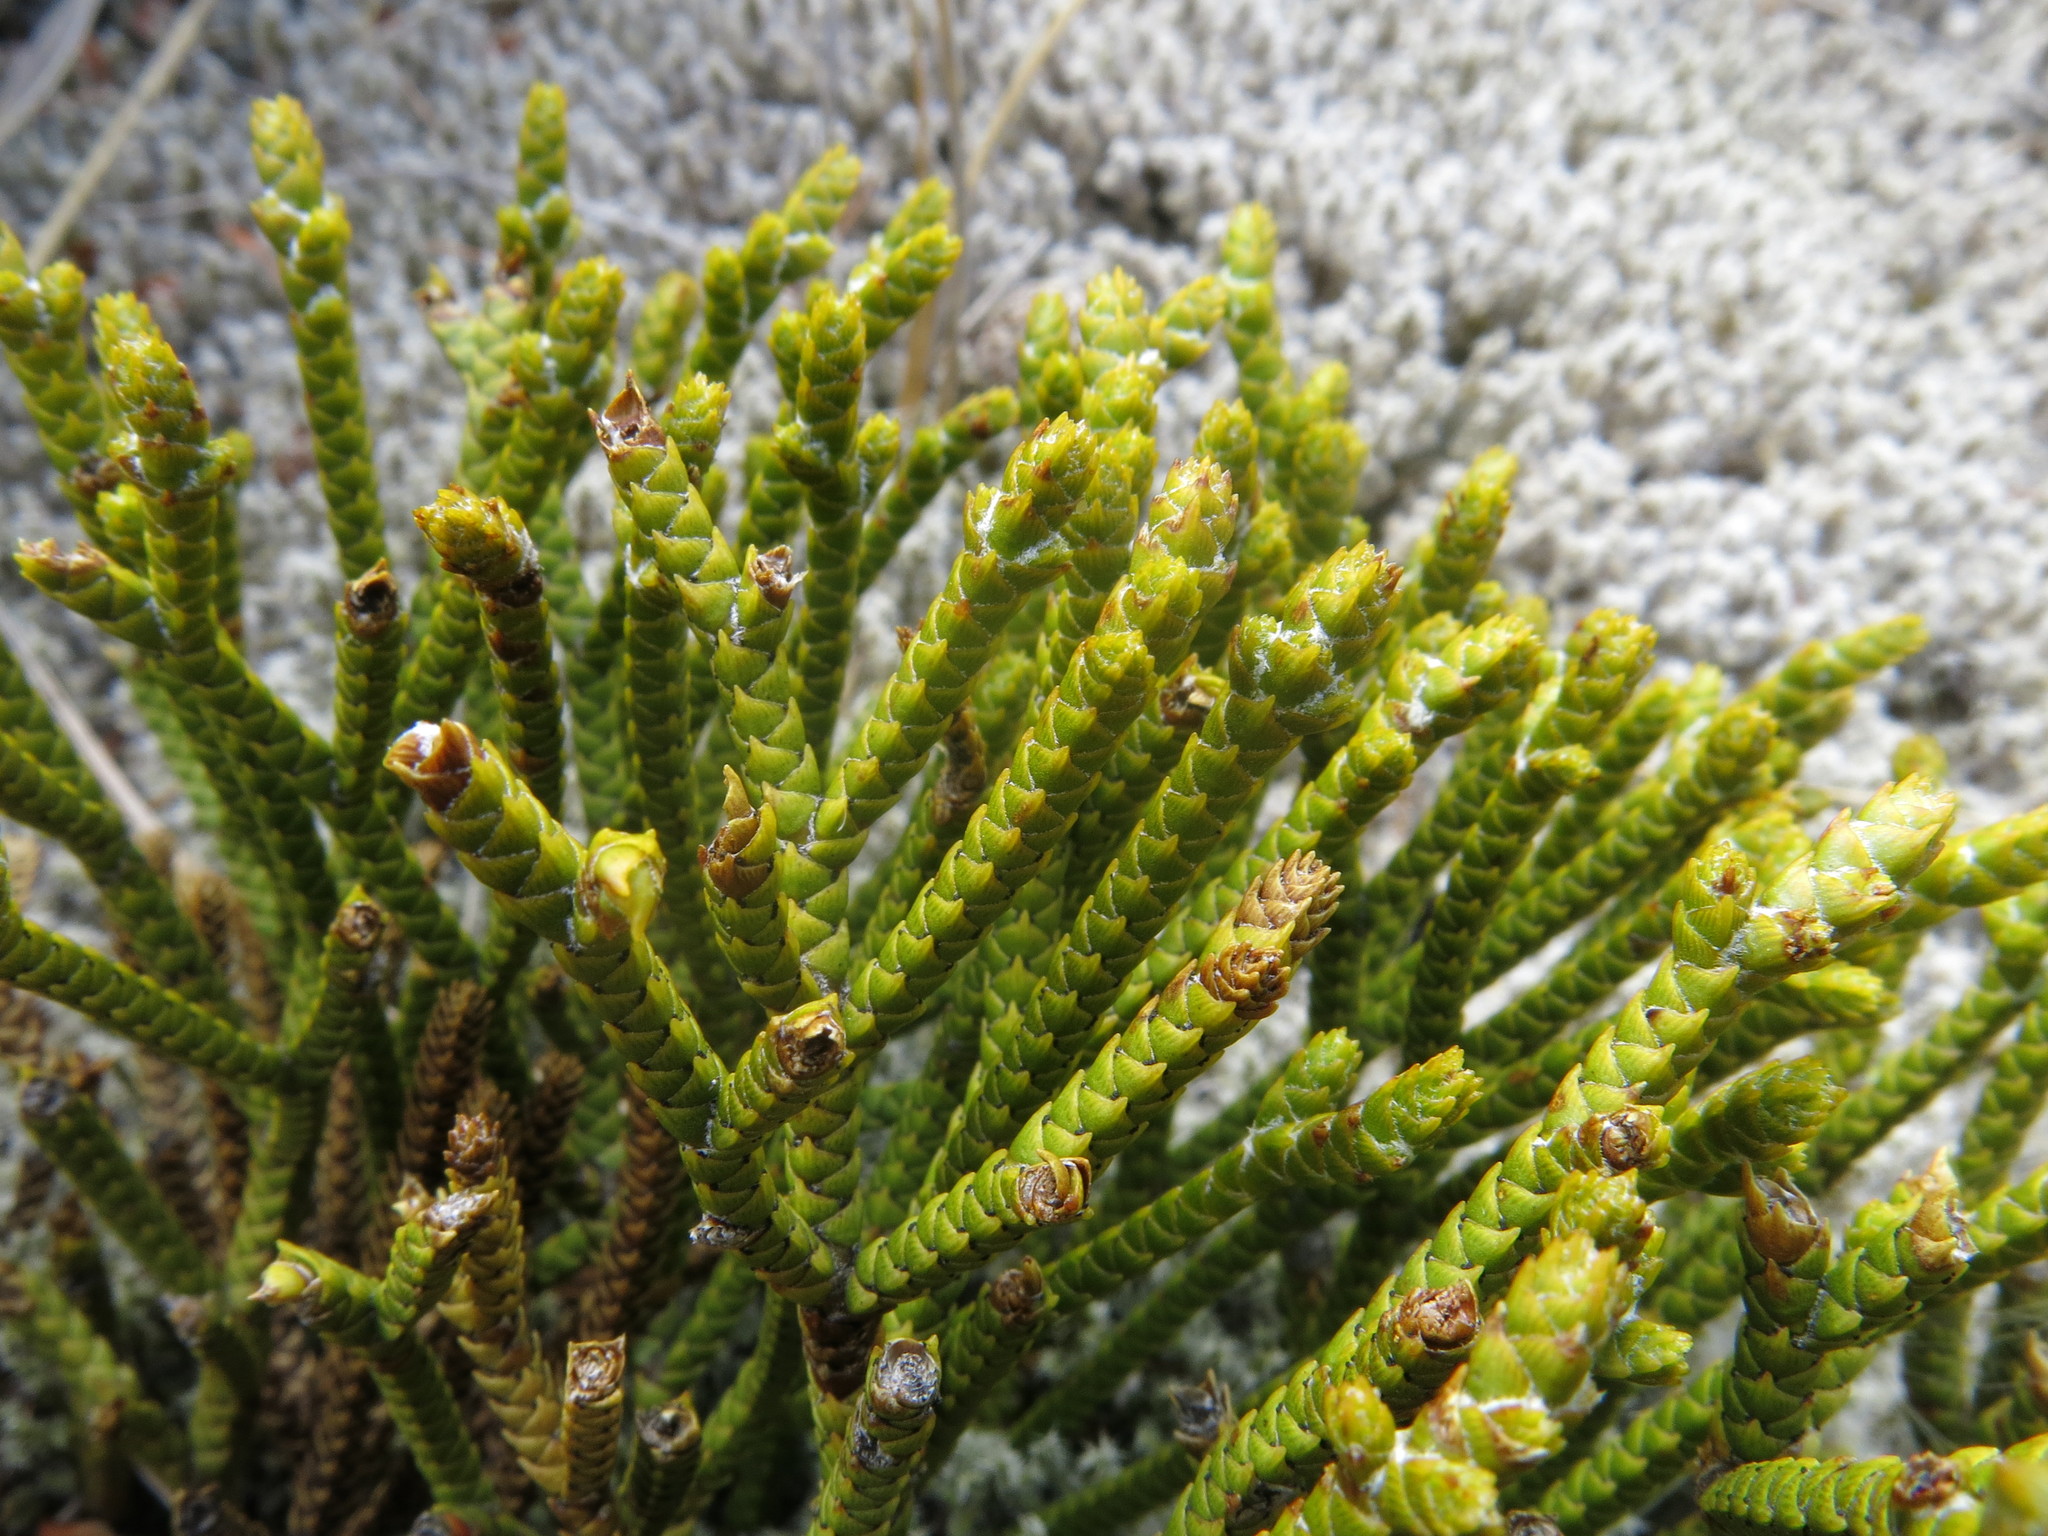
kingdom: Plantae
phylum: Tracheophyta
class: Magnoliopsida
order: Lamiales
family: Plantaginaceae
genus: Veronica
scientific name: Veronica lycopodioides
